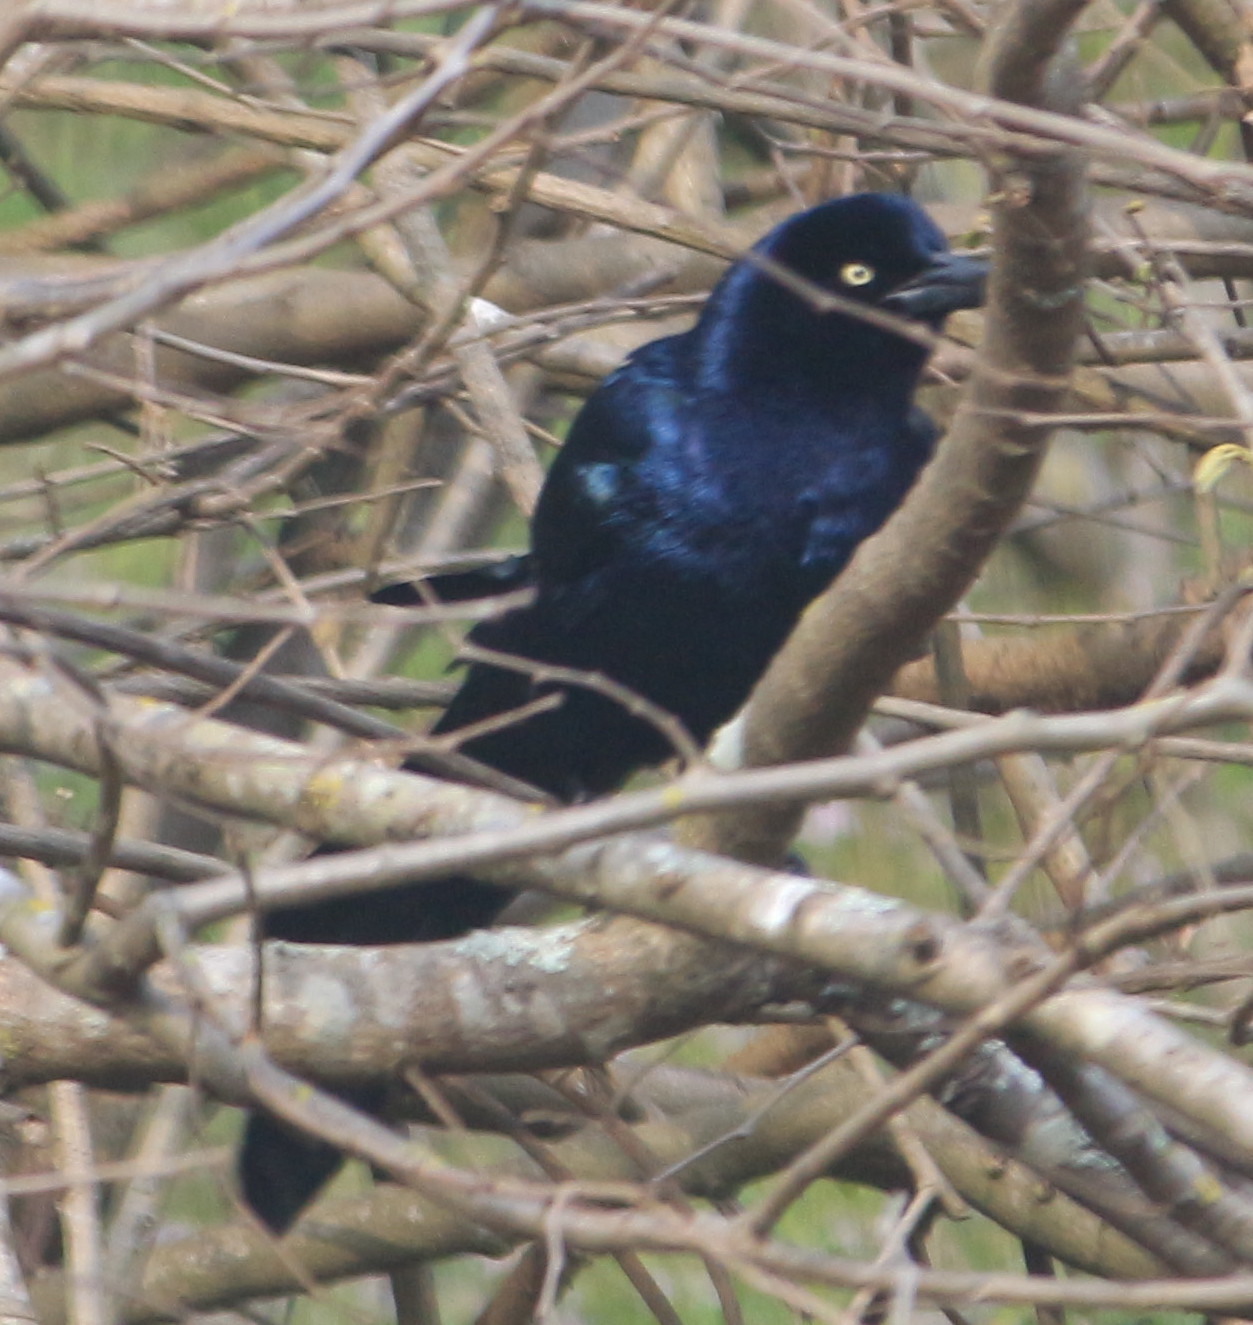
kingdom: Animalia
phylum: Chordata
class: Aves
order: Passeriformes
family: Icteridae
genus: Quiscalus
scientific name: Quiscalus mexicanus
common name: Great-tailed grackle
